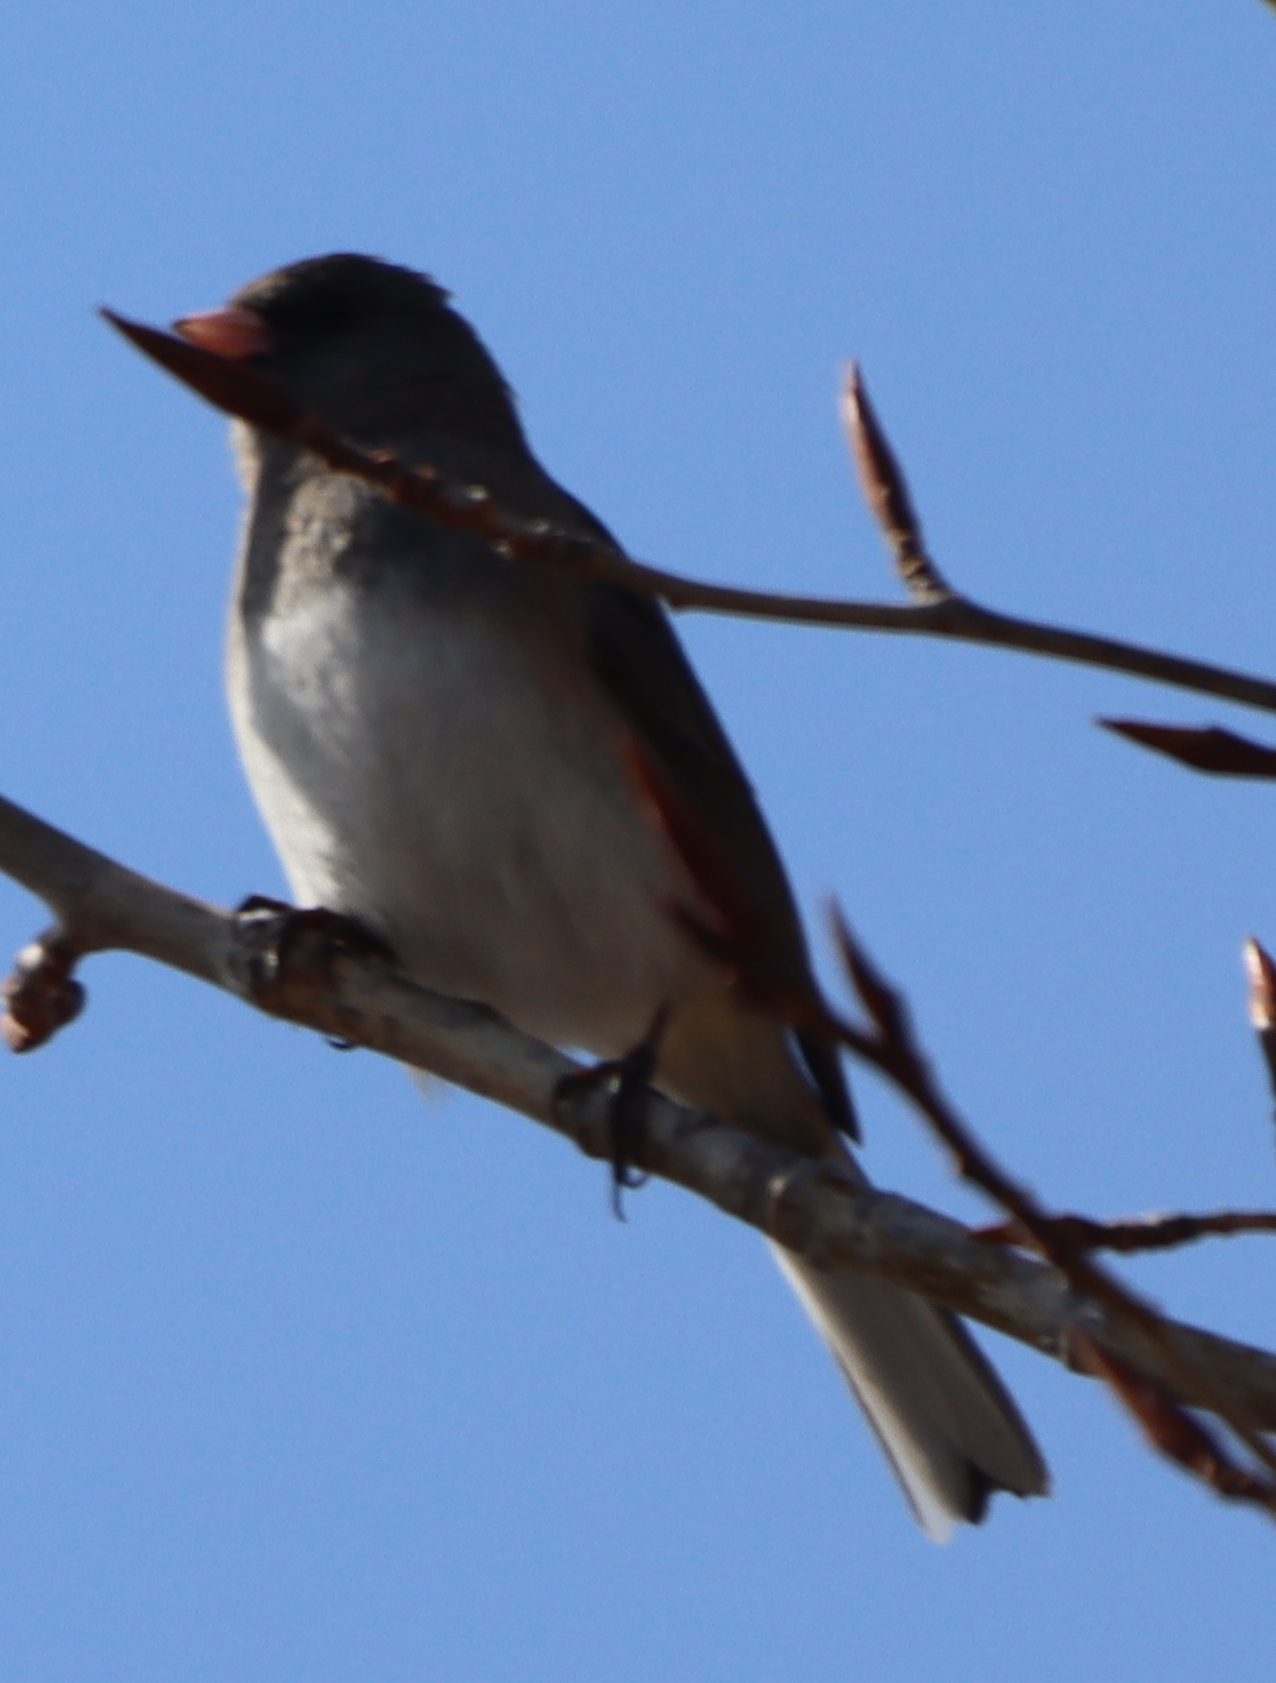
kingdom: Animalia
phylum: Chordata
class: Aves
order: Passeriformes
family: Passerellidae
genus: Junco
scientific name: Junco hyemalis
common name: Dark-eyed junco
